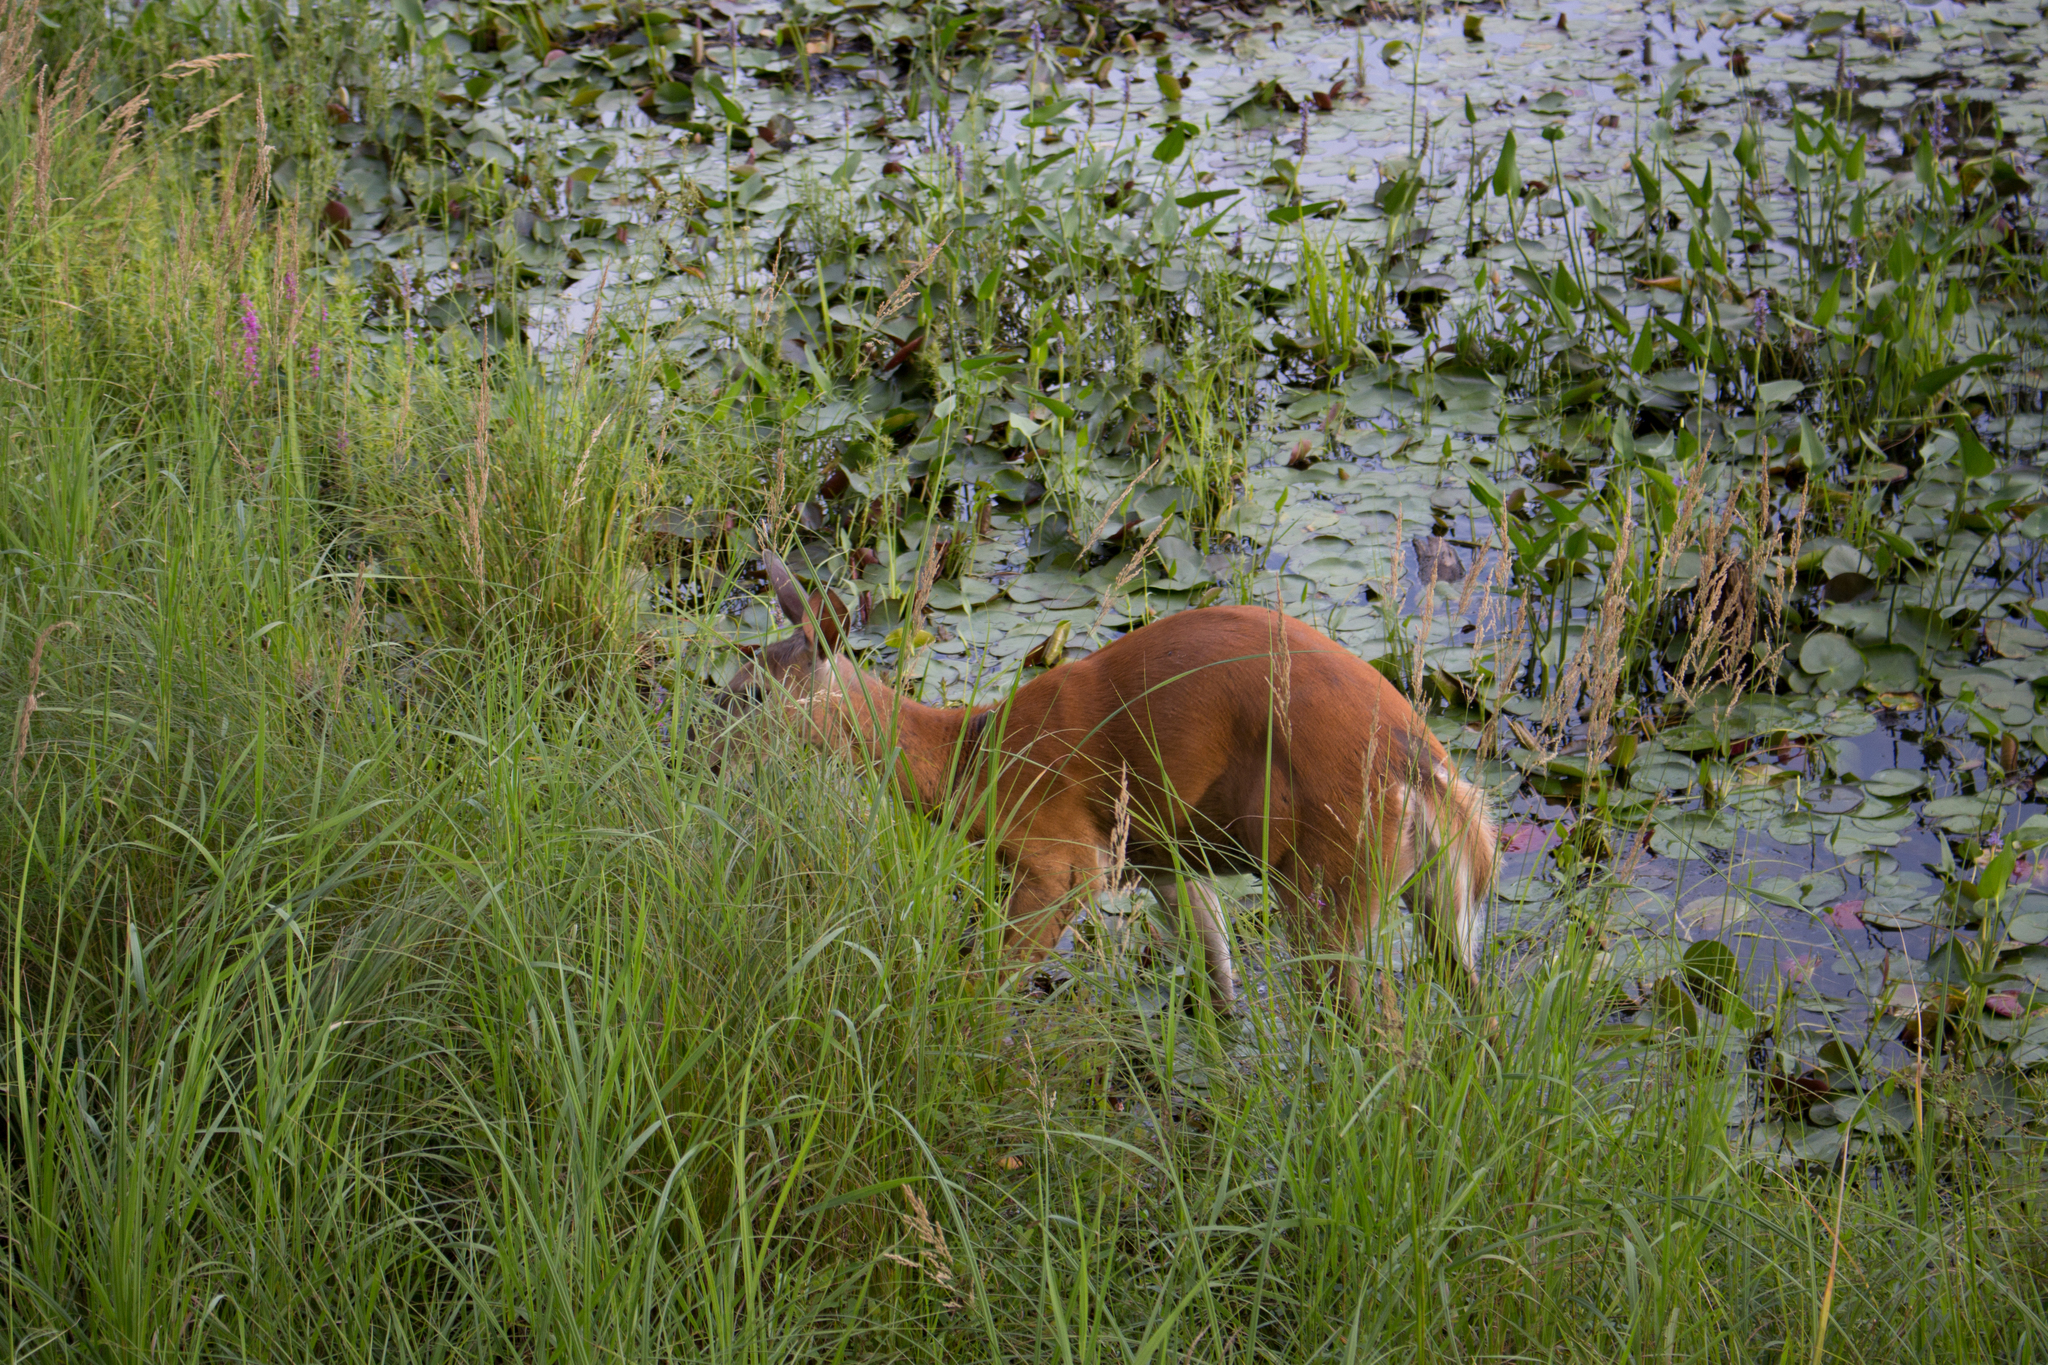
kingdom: Animalia
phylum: Chordata
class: Mammalia
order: Artiodactyla
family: Cervidae
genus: Odocoileus
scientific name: Odocoileus virginianus
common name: White-tailed deer
